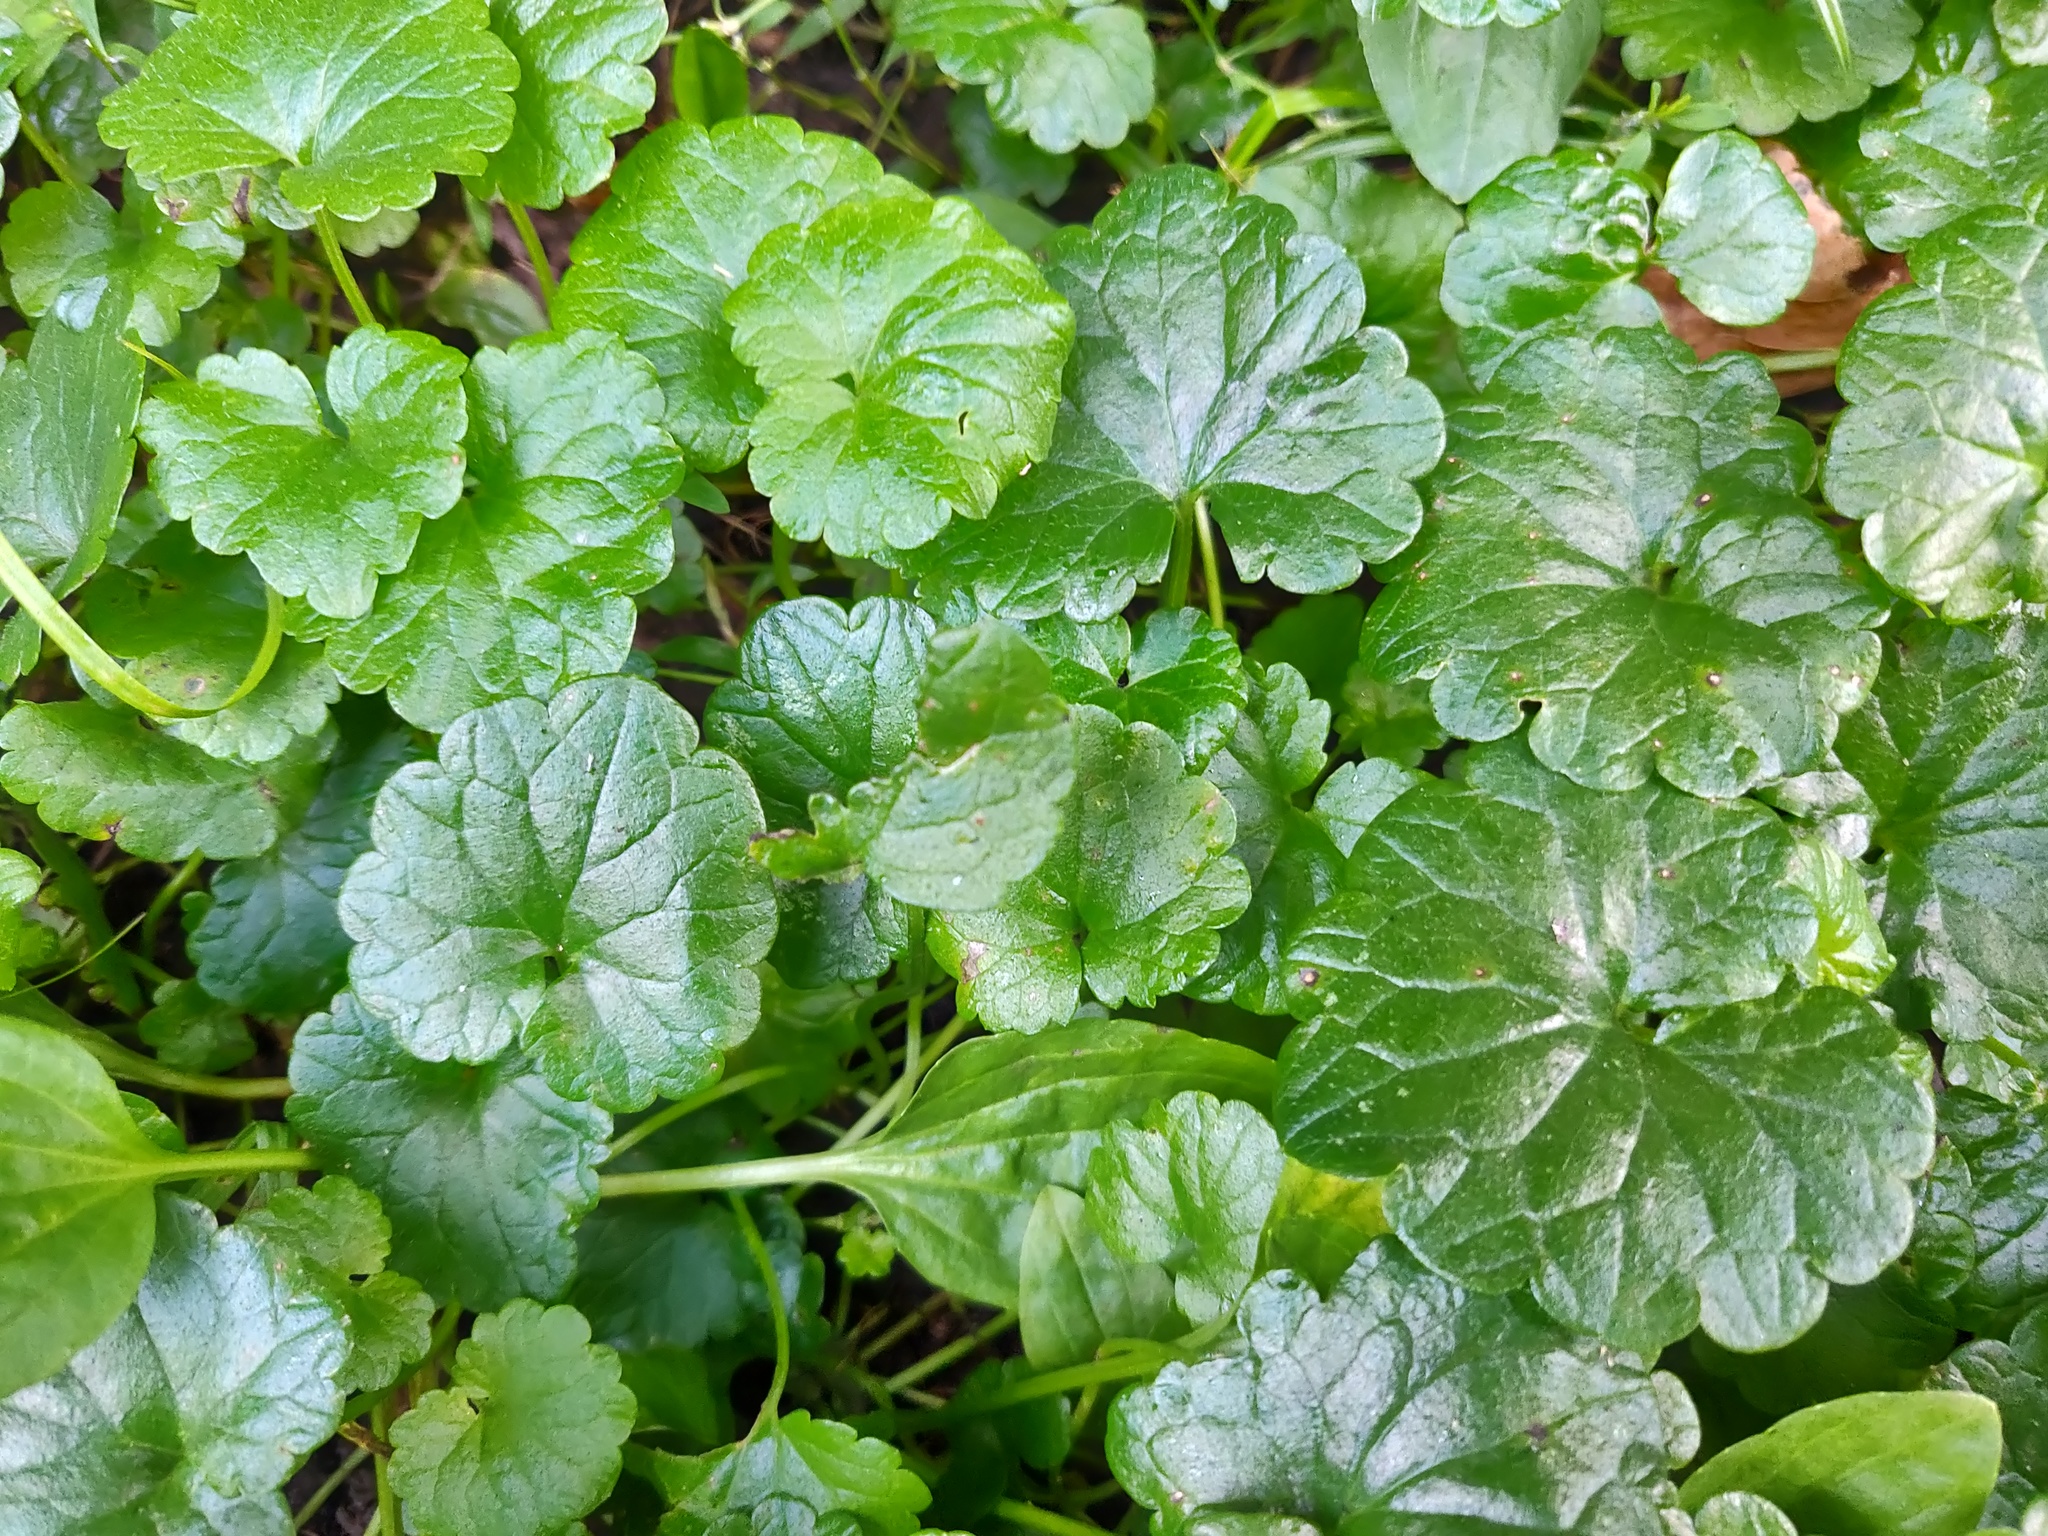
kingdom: Plantae
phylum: Tracheophyta
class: Magnoliopsida
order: Lamiales
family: Lamiaceae
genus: Glechoma
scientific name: Glechoma hederacea
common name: Ground ivy
